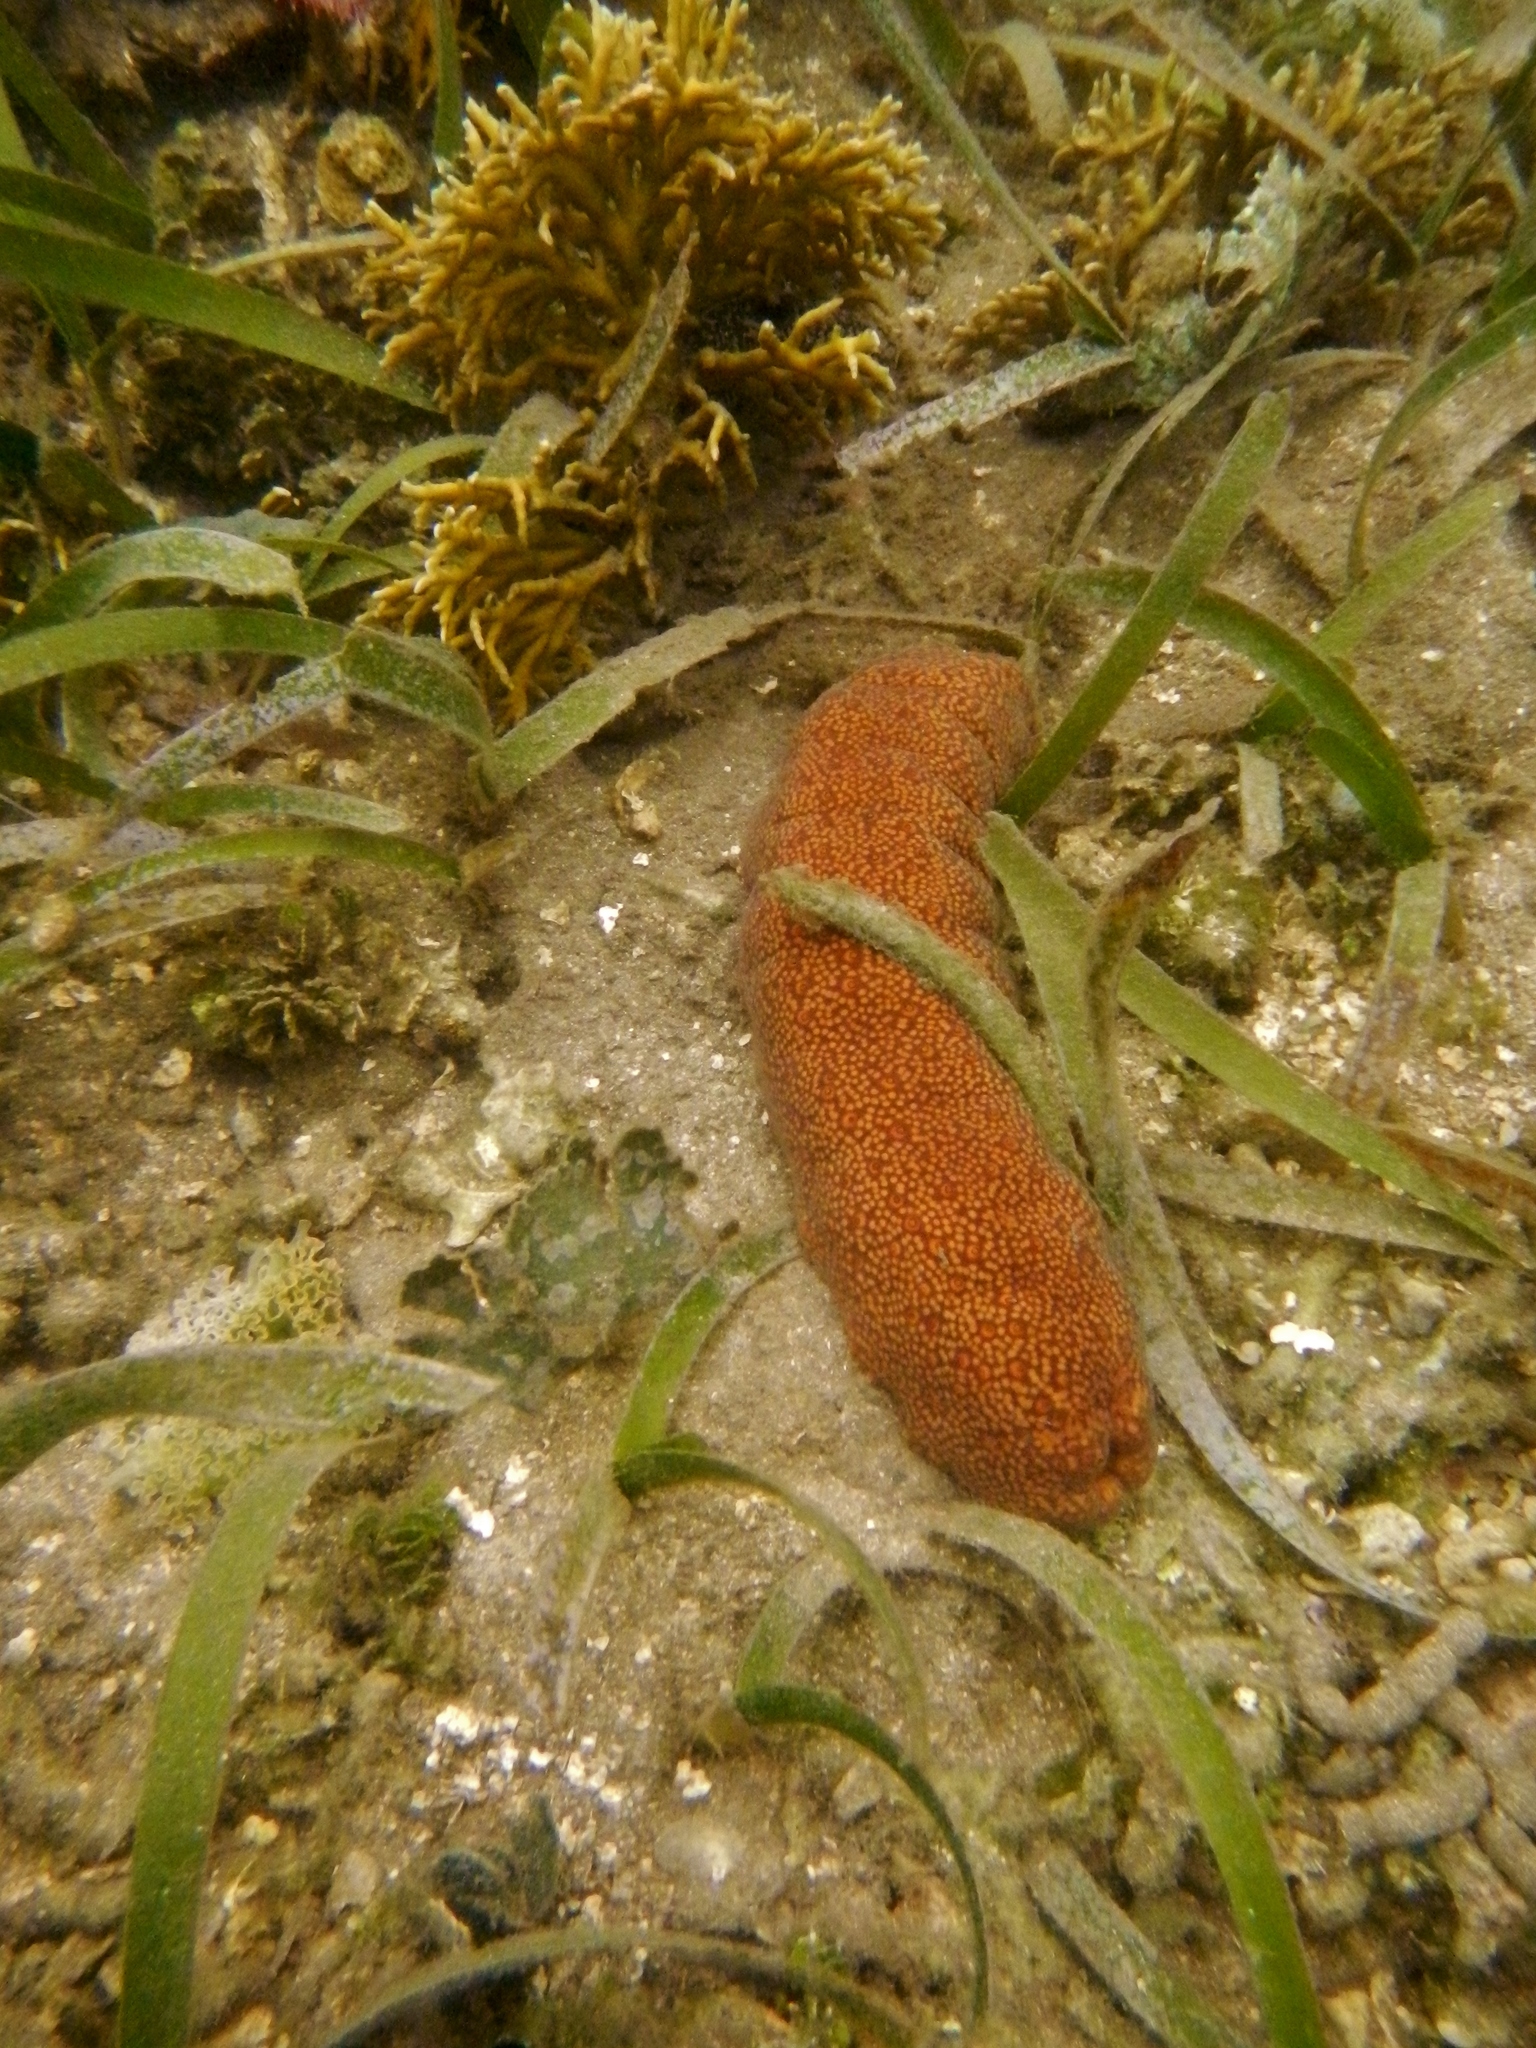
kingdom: Animalia
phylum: Echinodermata
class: Holothuroidea
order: Holothuriida
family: Holothuriidae
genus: Holothuria
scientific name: Holothuria mexicana
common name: Donkey dung sea cucumber
